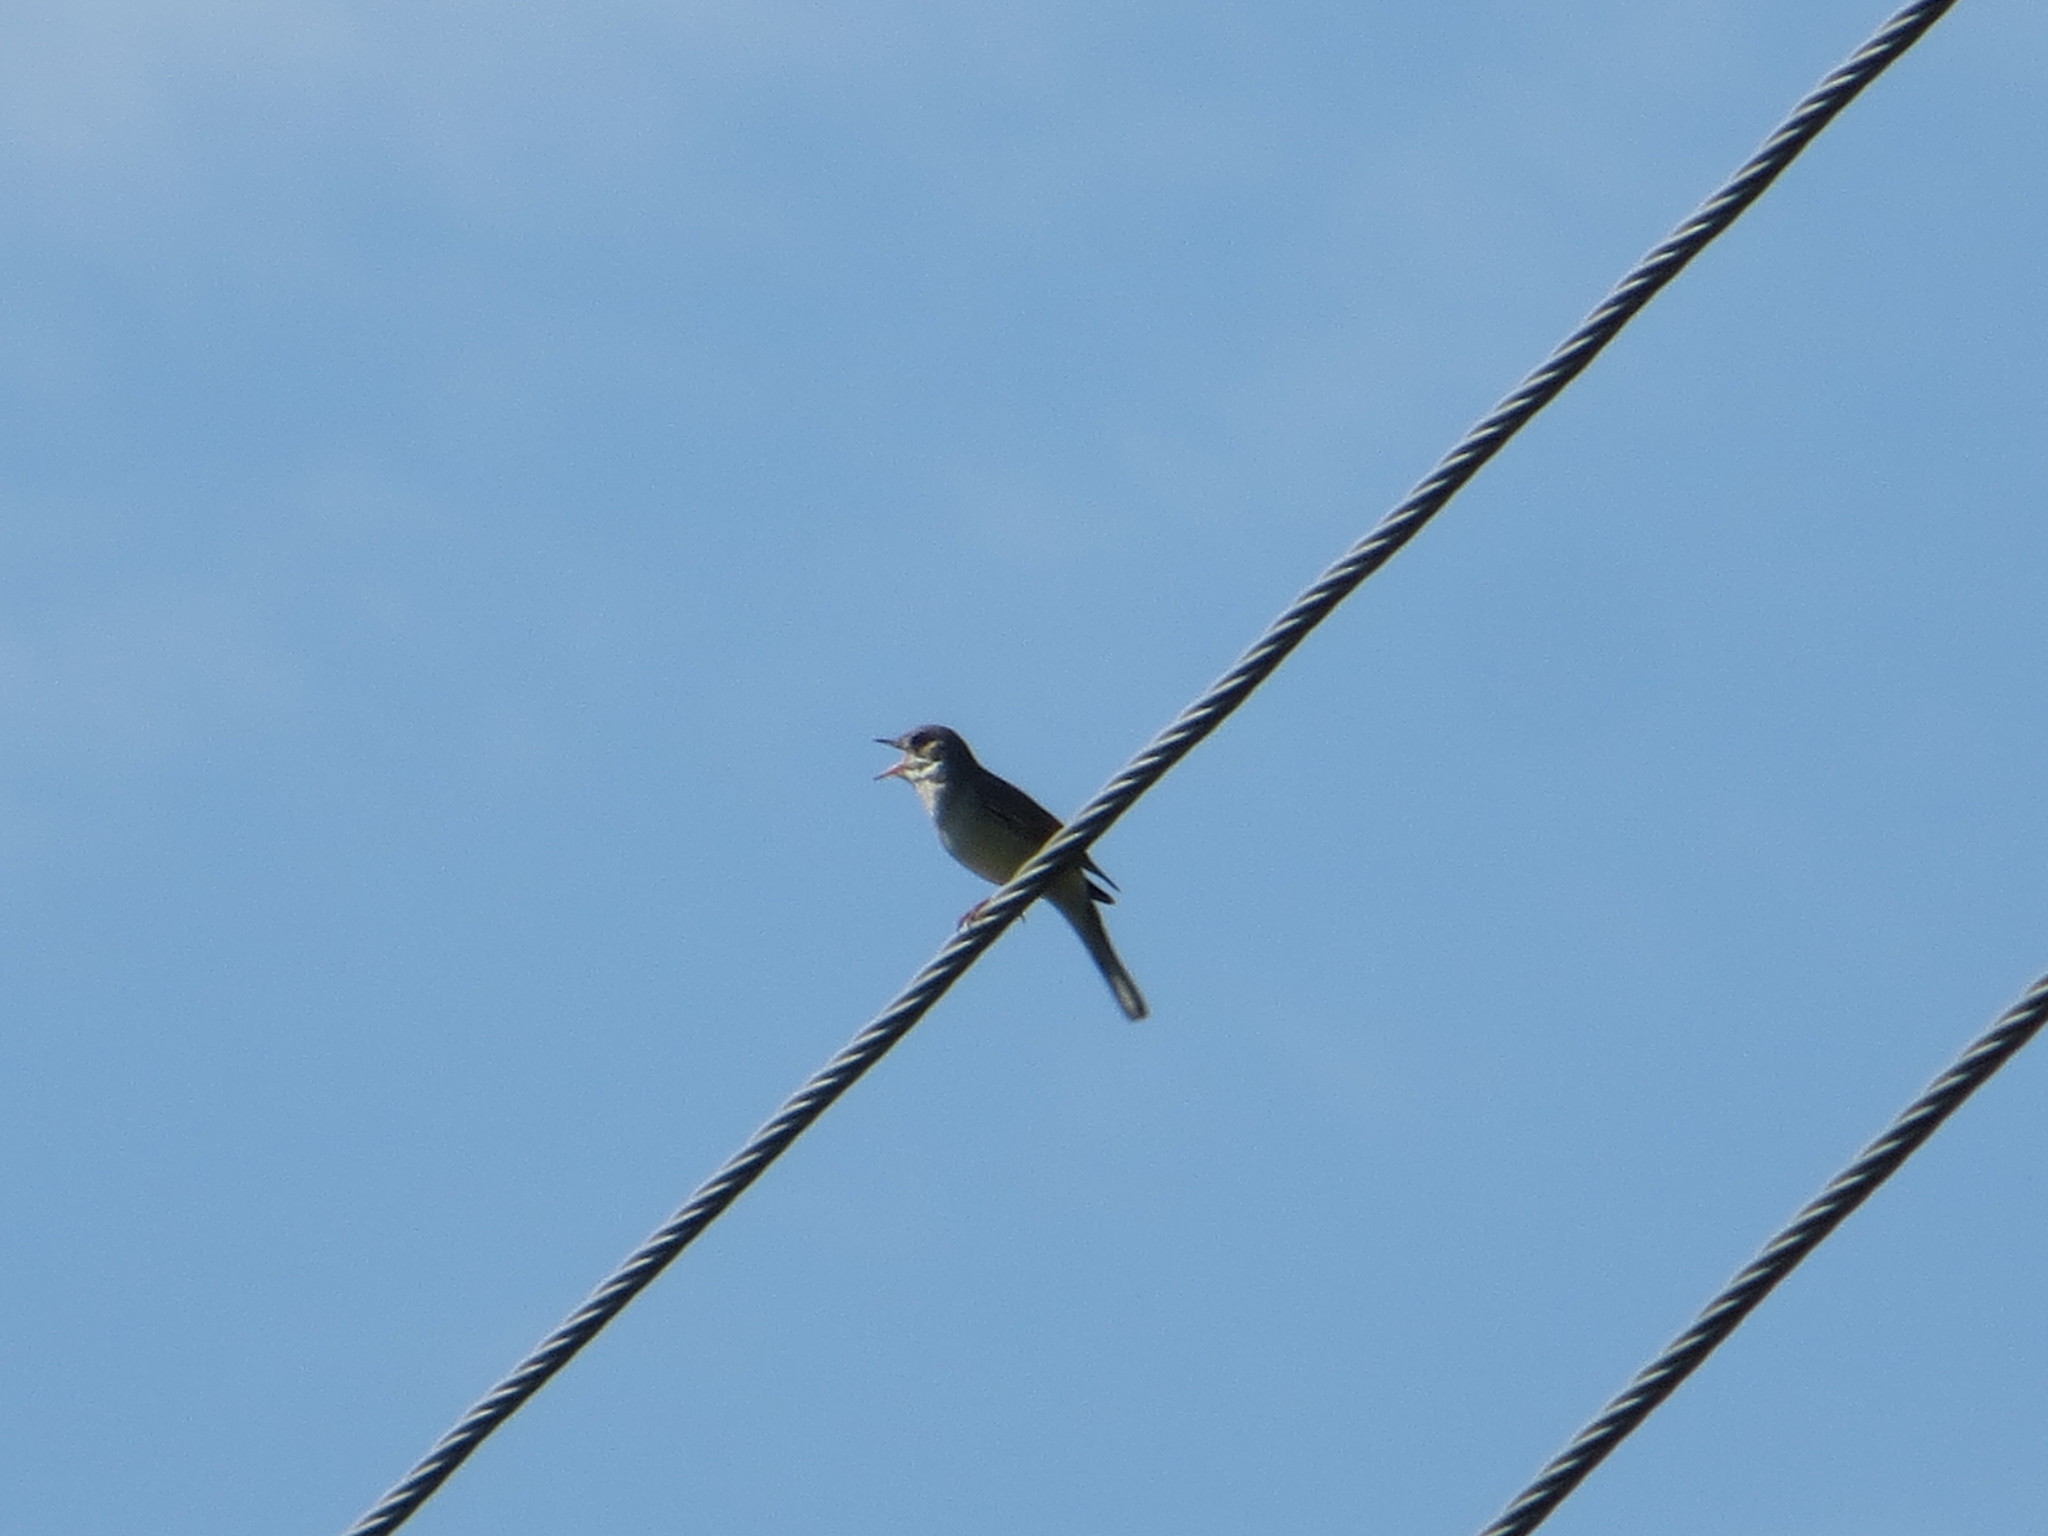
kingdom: Animalia
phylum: Chordata
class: Aves
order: Passeriformes
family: Sylviidae
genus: Sylvia
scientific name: Sylvia communis
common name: Common whitethroat
